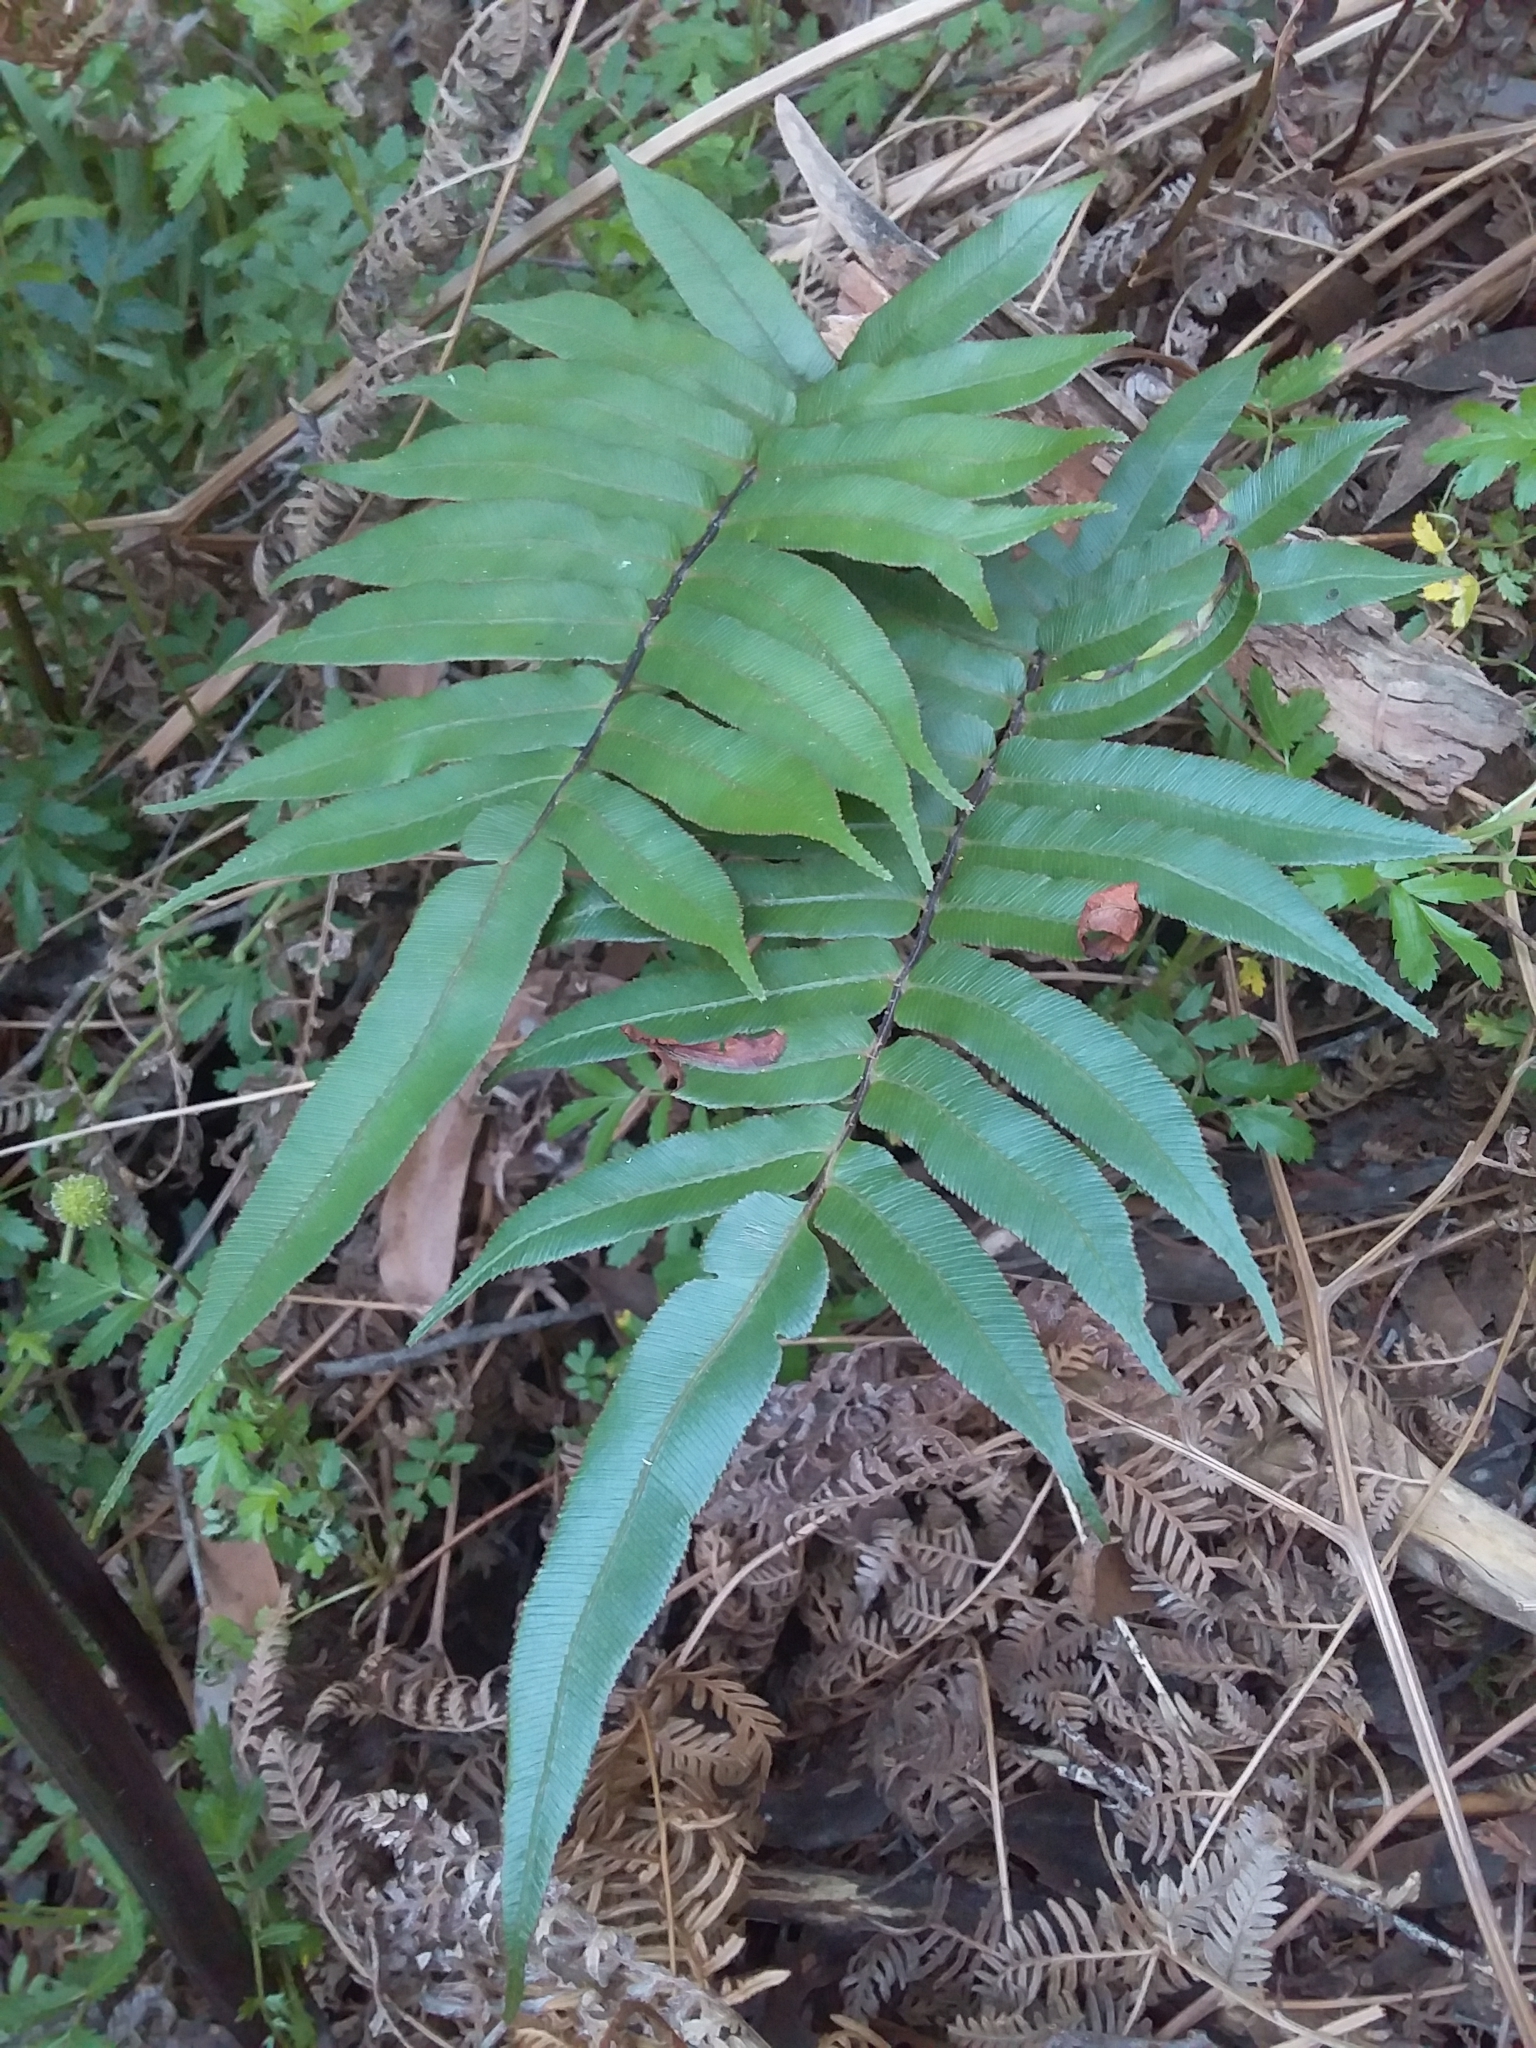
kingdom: Plantae
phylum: Tracheophyta
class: Polypodiopsida
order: Polypodiales
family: Blechnaceae
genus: Parablechnum
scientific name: Parablechnum wattsii
